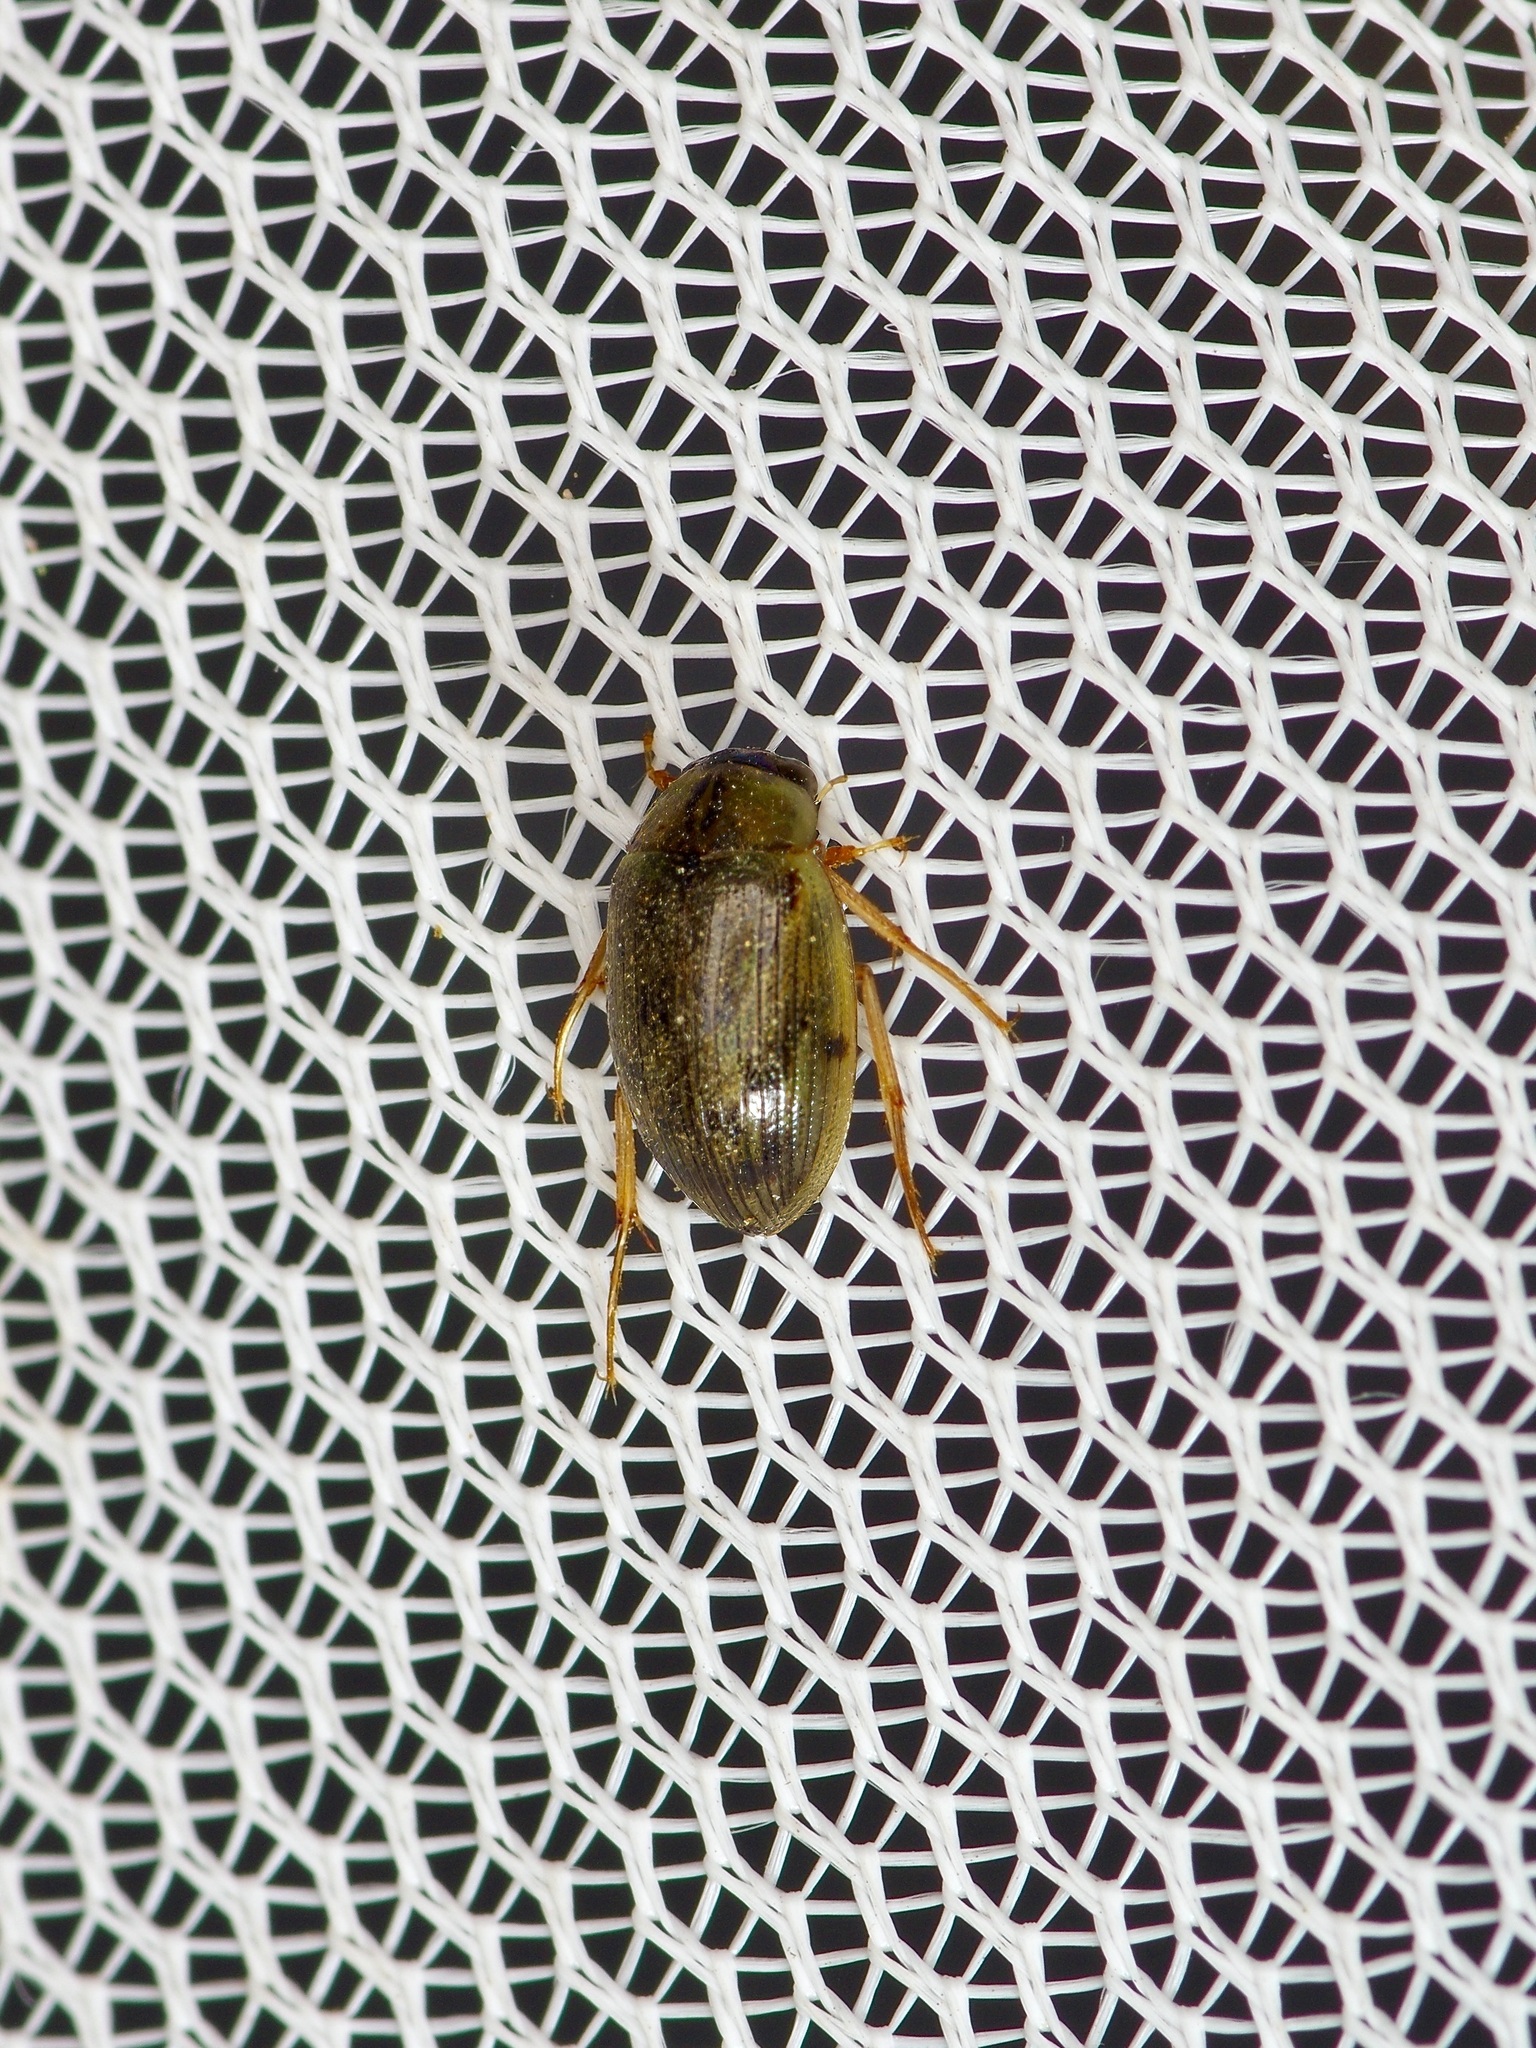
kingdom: Animalia
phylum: Arthropoda
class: Insecta
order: Coleoptera
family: Hydrophilidae
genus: Berosus
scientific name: Berosus
